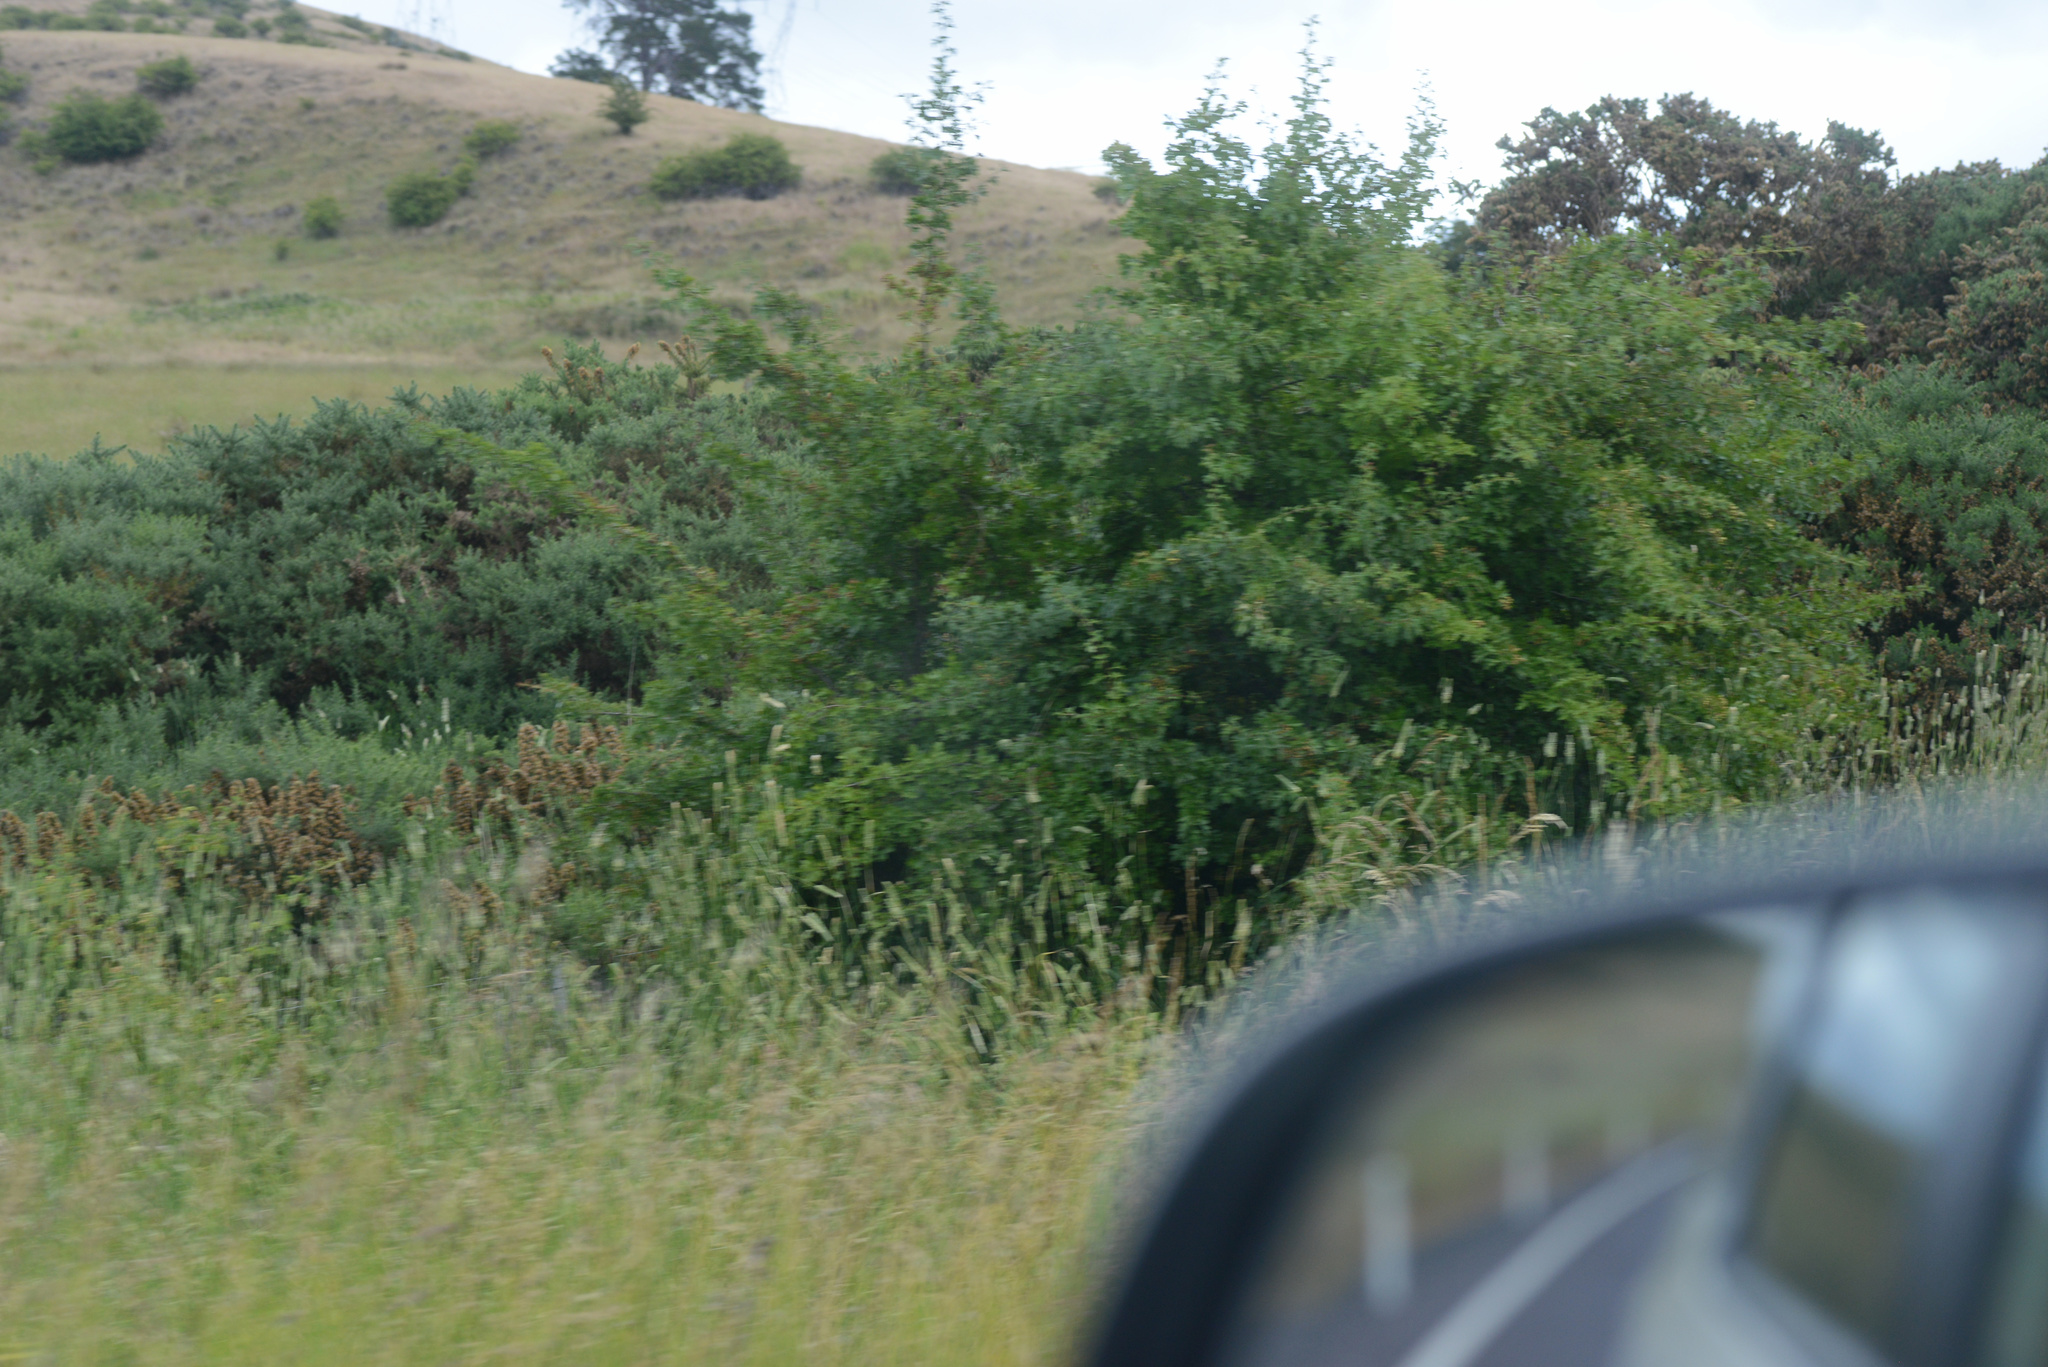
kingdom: Plantae
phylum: Tracheophyta
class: Magnoliopsida
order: Rosales
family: Rosaceae
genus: Crataegus
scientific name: Crataegus monogyna
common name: Hawthorn
